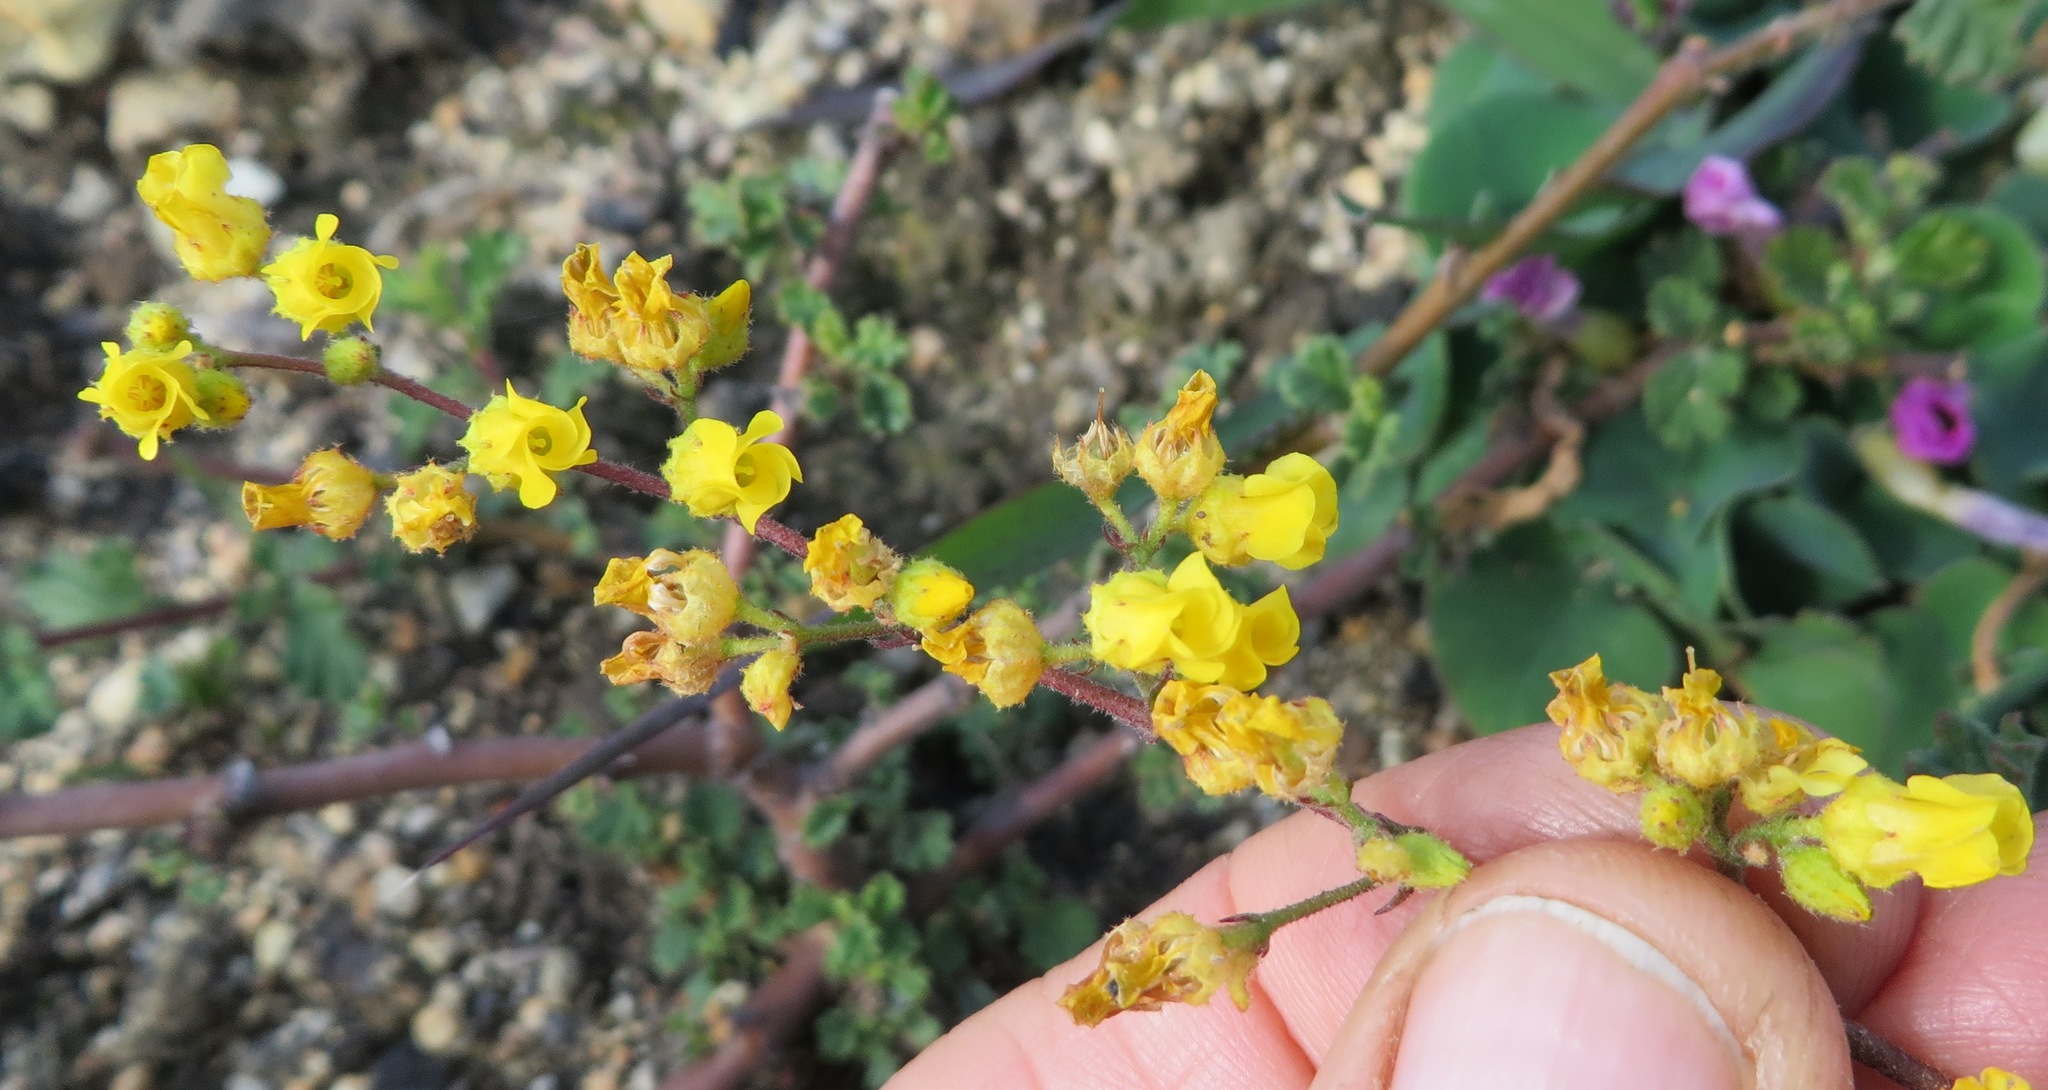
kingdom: Plantae
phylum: Tracheophyta
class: Magnoliopsida
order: Malvales
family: Malvaceae
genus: Hermannia
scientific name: Hermannia alnifolia
